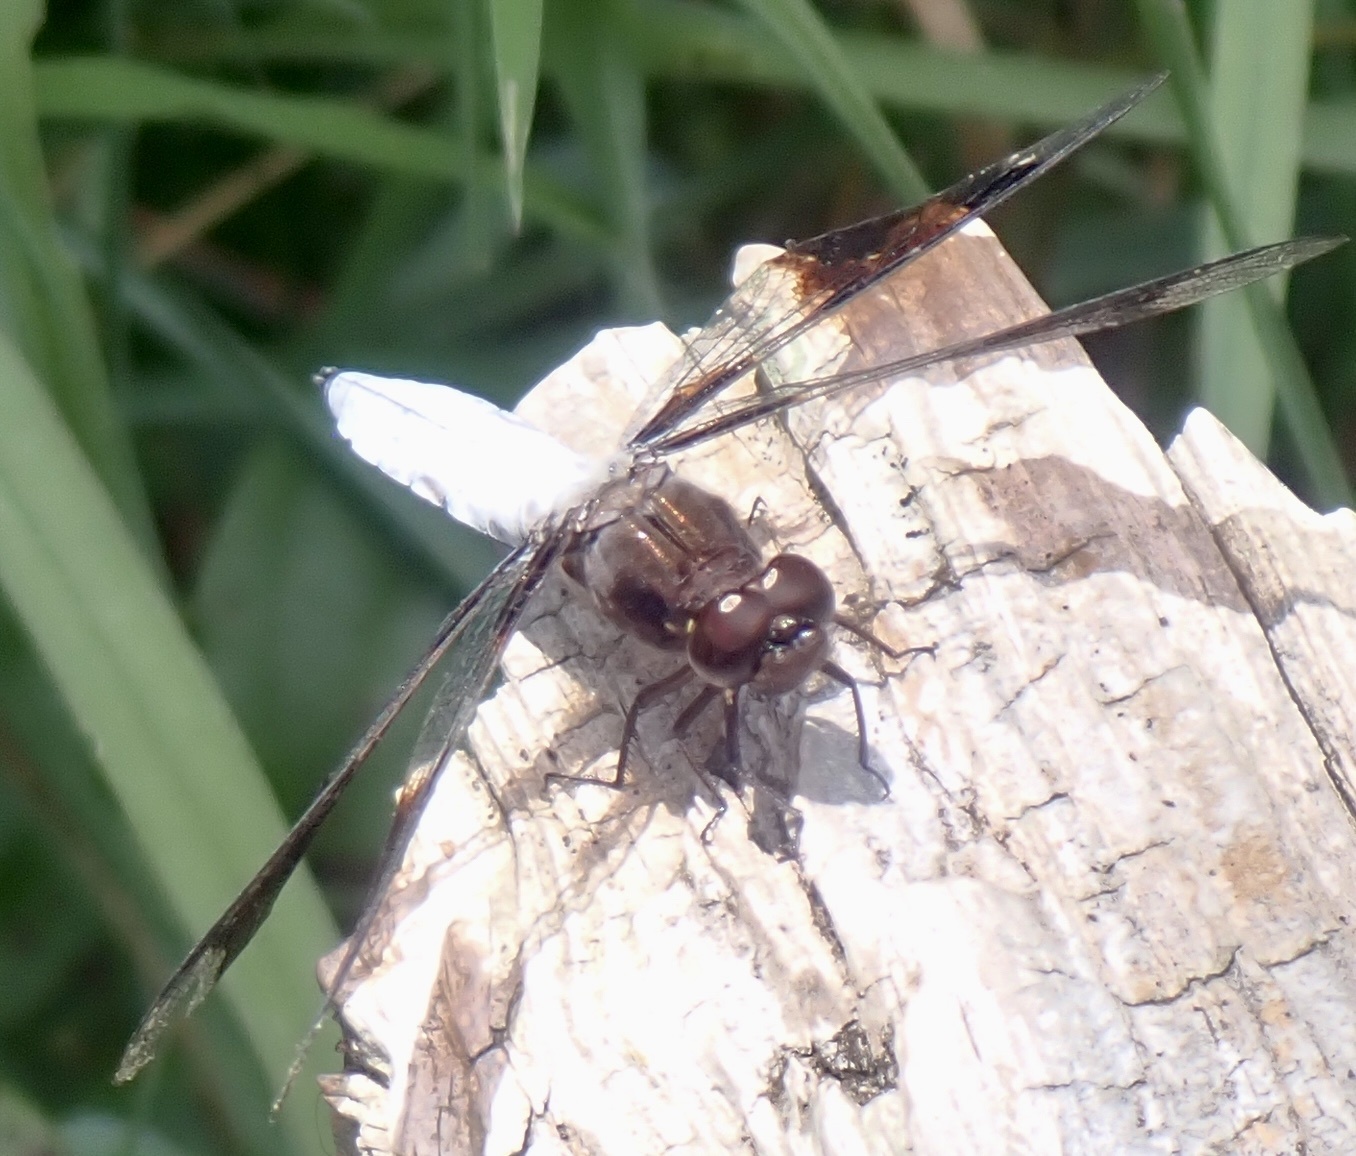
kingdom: Animalia
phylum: Arthropoda
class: Insecta
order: Odonata
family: Libellulidae
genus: Plathemis
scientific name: Plathemis lydia
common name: Common whitetail
